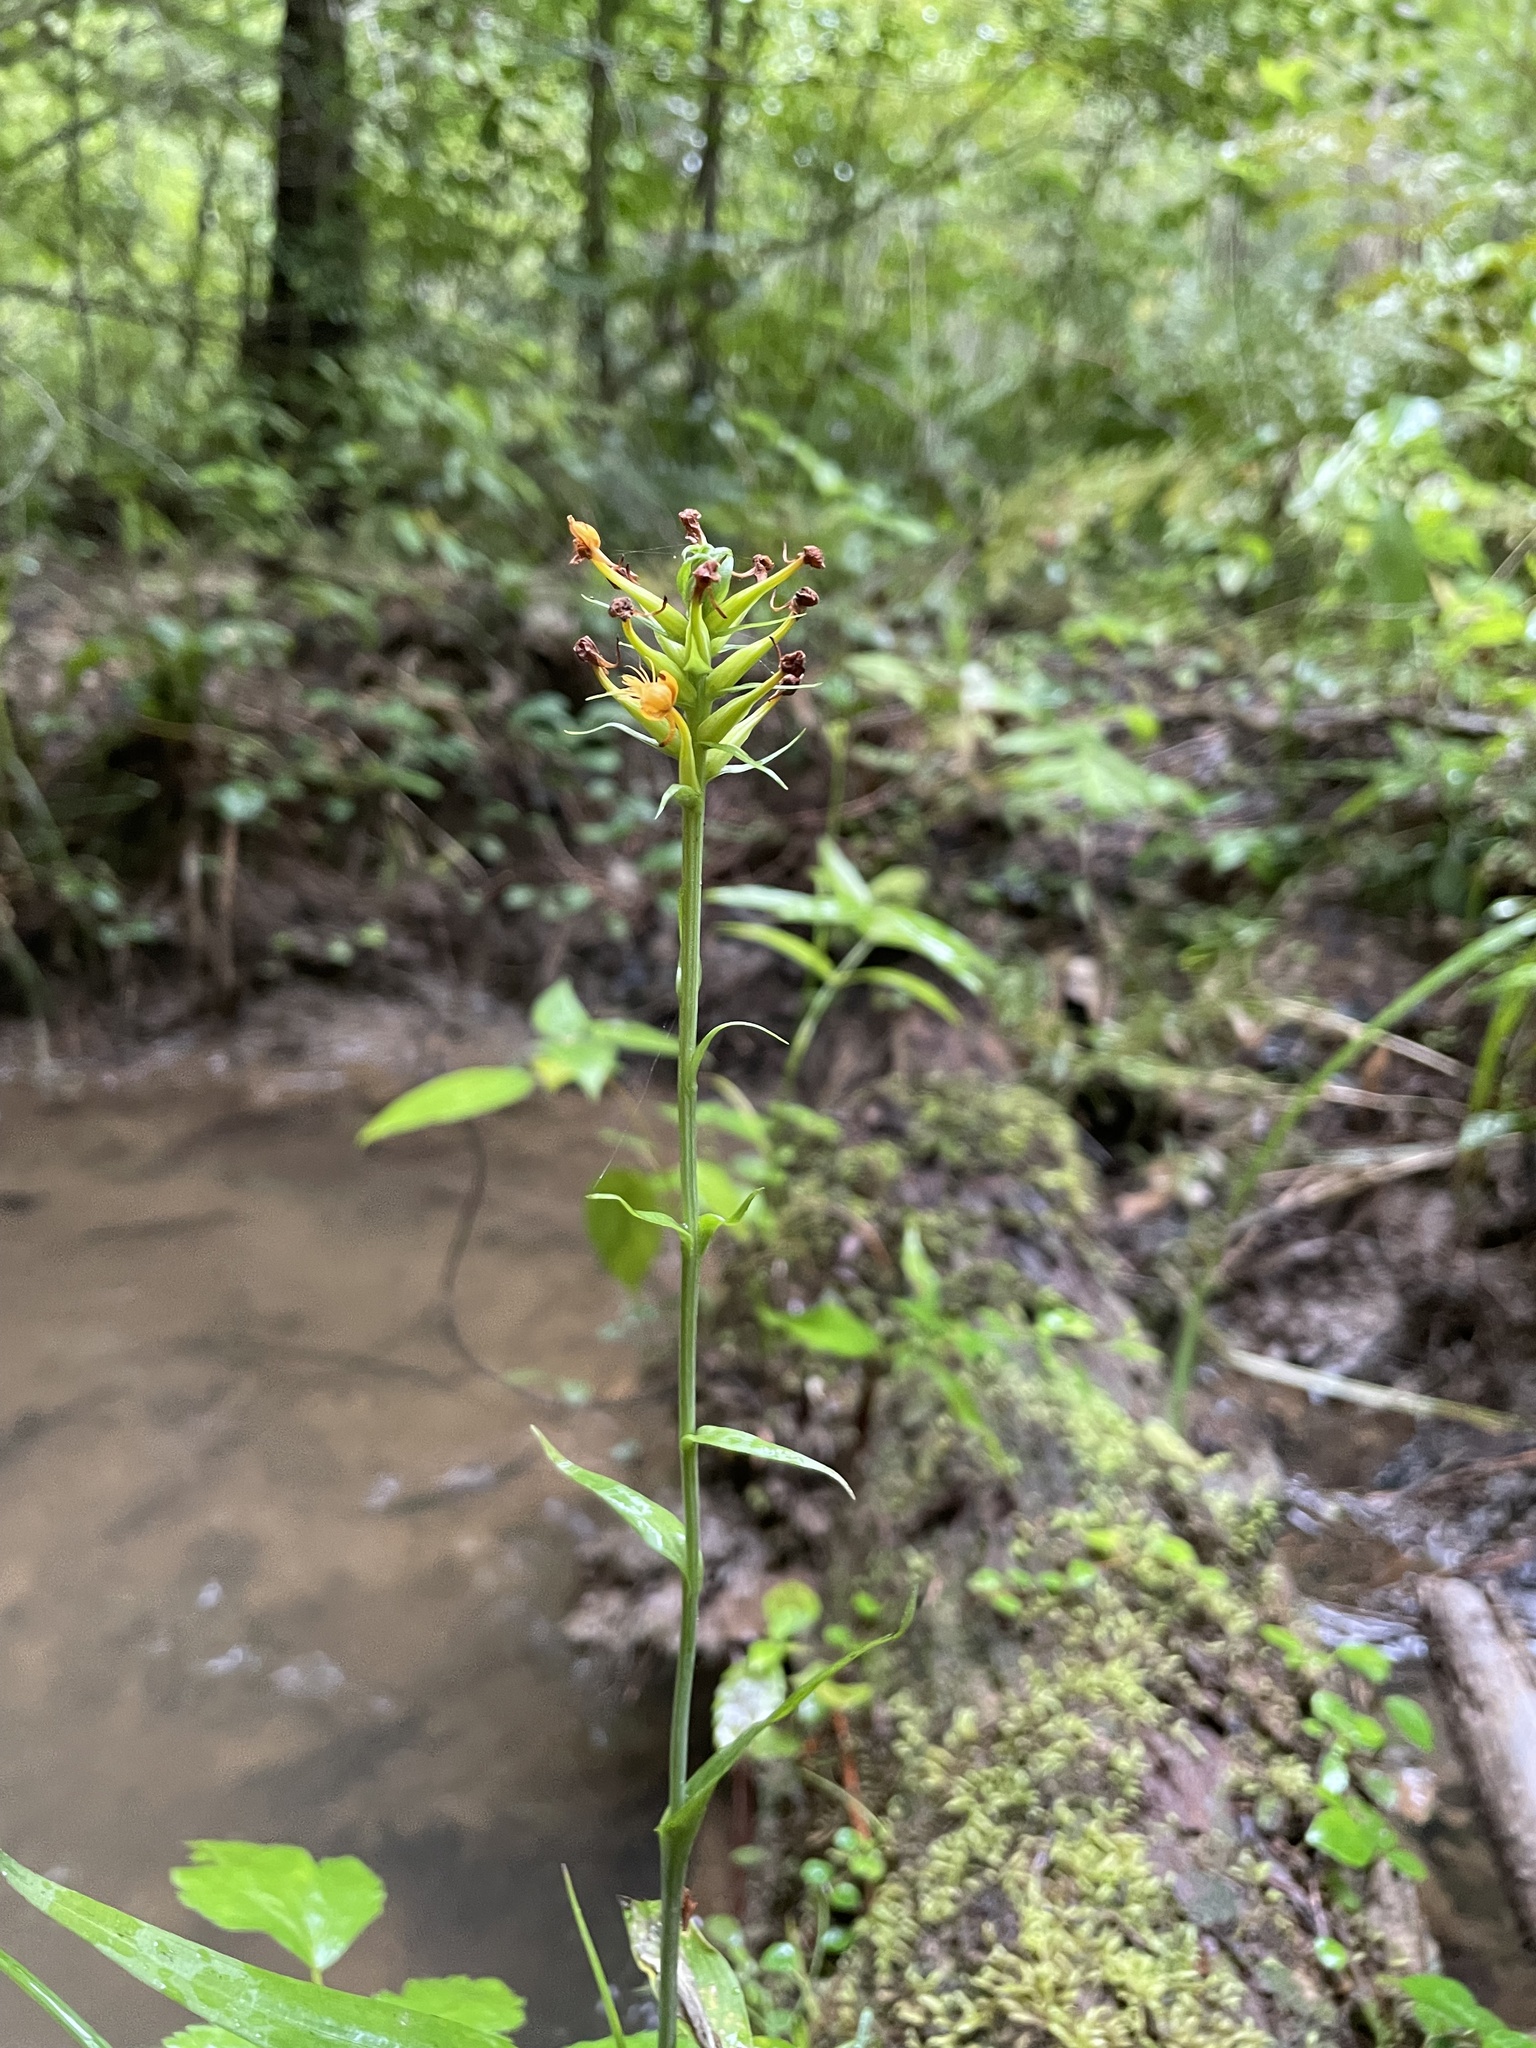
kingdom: Plantae
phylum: Tracheophyta
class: Liliopsida
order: Asparagales
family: Orchidaceae
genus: Platanthera
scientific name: Platanthera cristata
